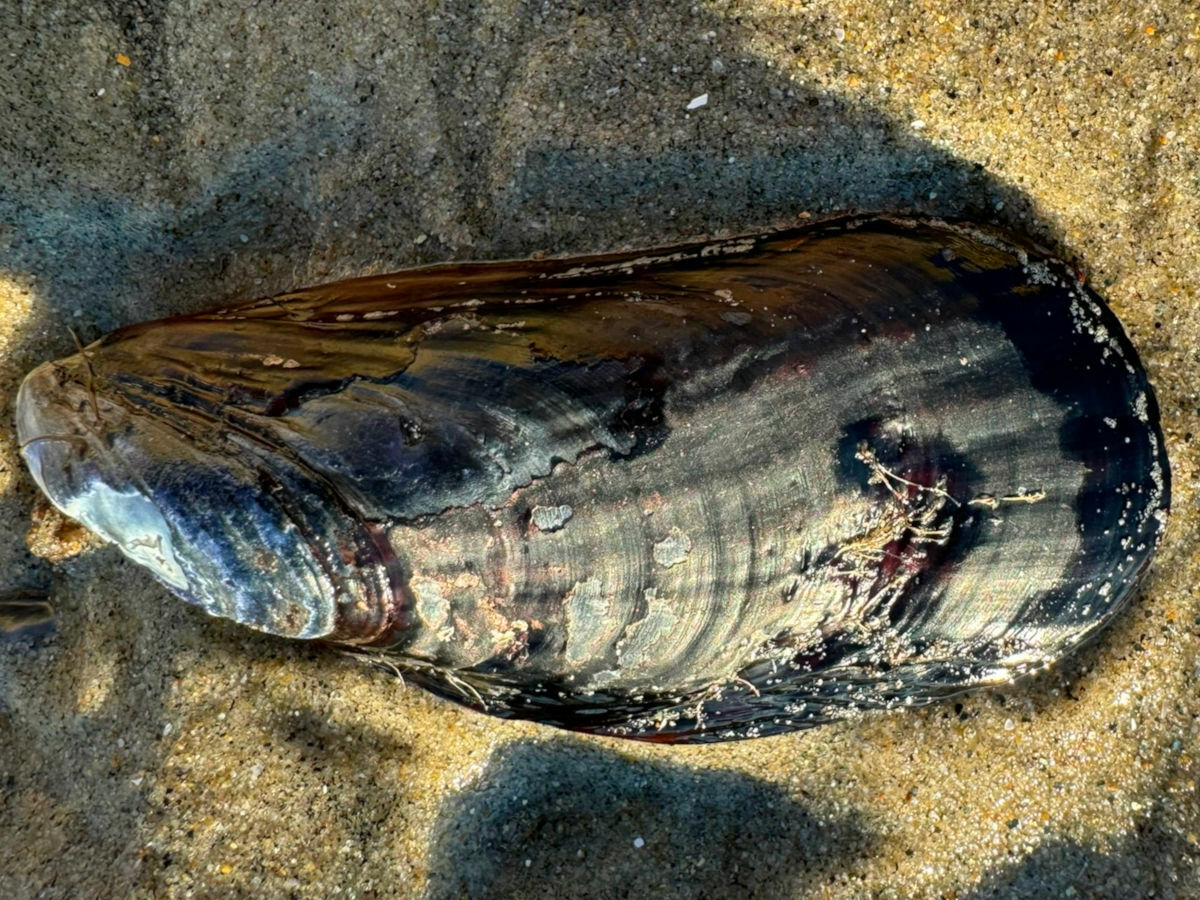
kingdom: Animalia
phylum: Mollusca
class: Bivalvia
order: Mytilida
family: Mytilidae
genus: Mytilus
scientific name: Mytilus californianus
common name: California mussel
